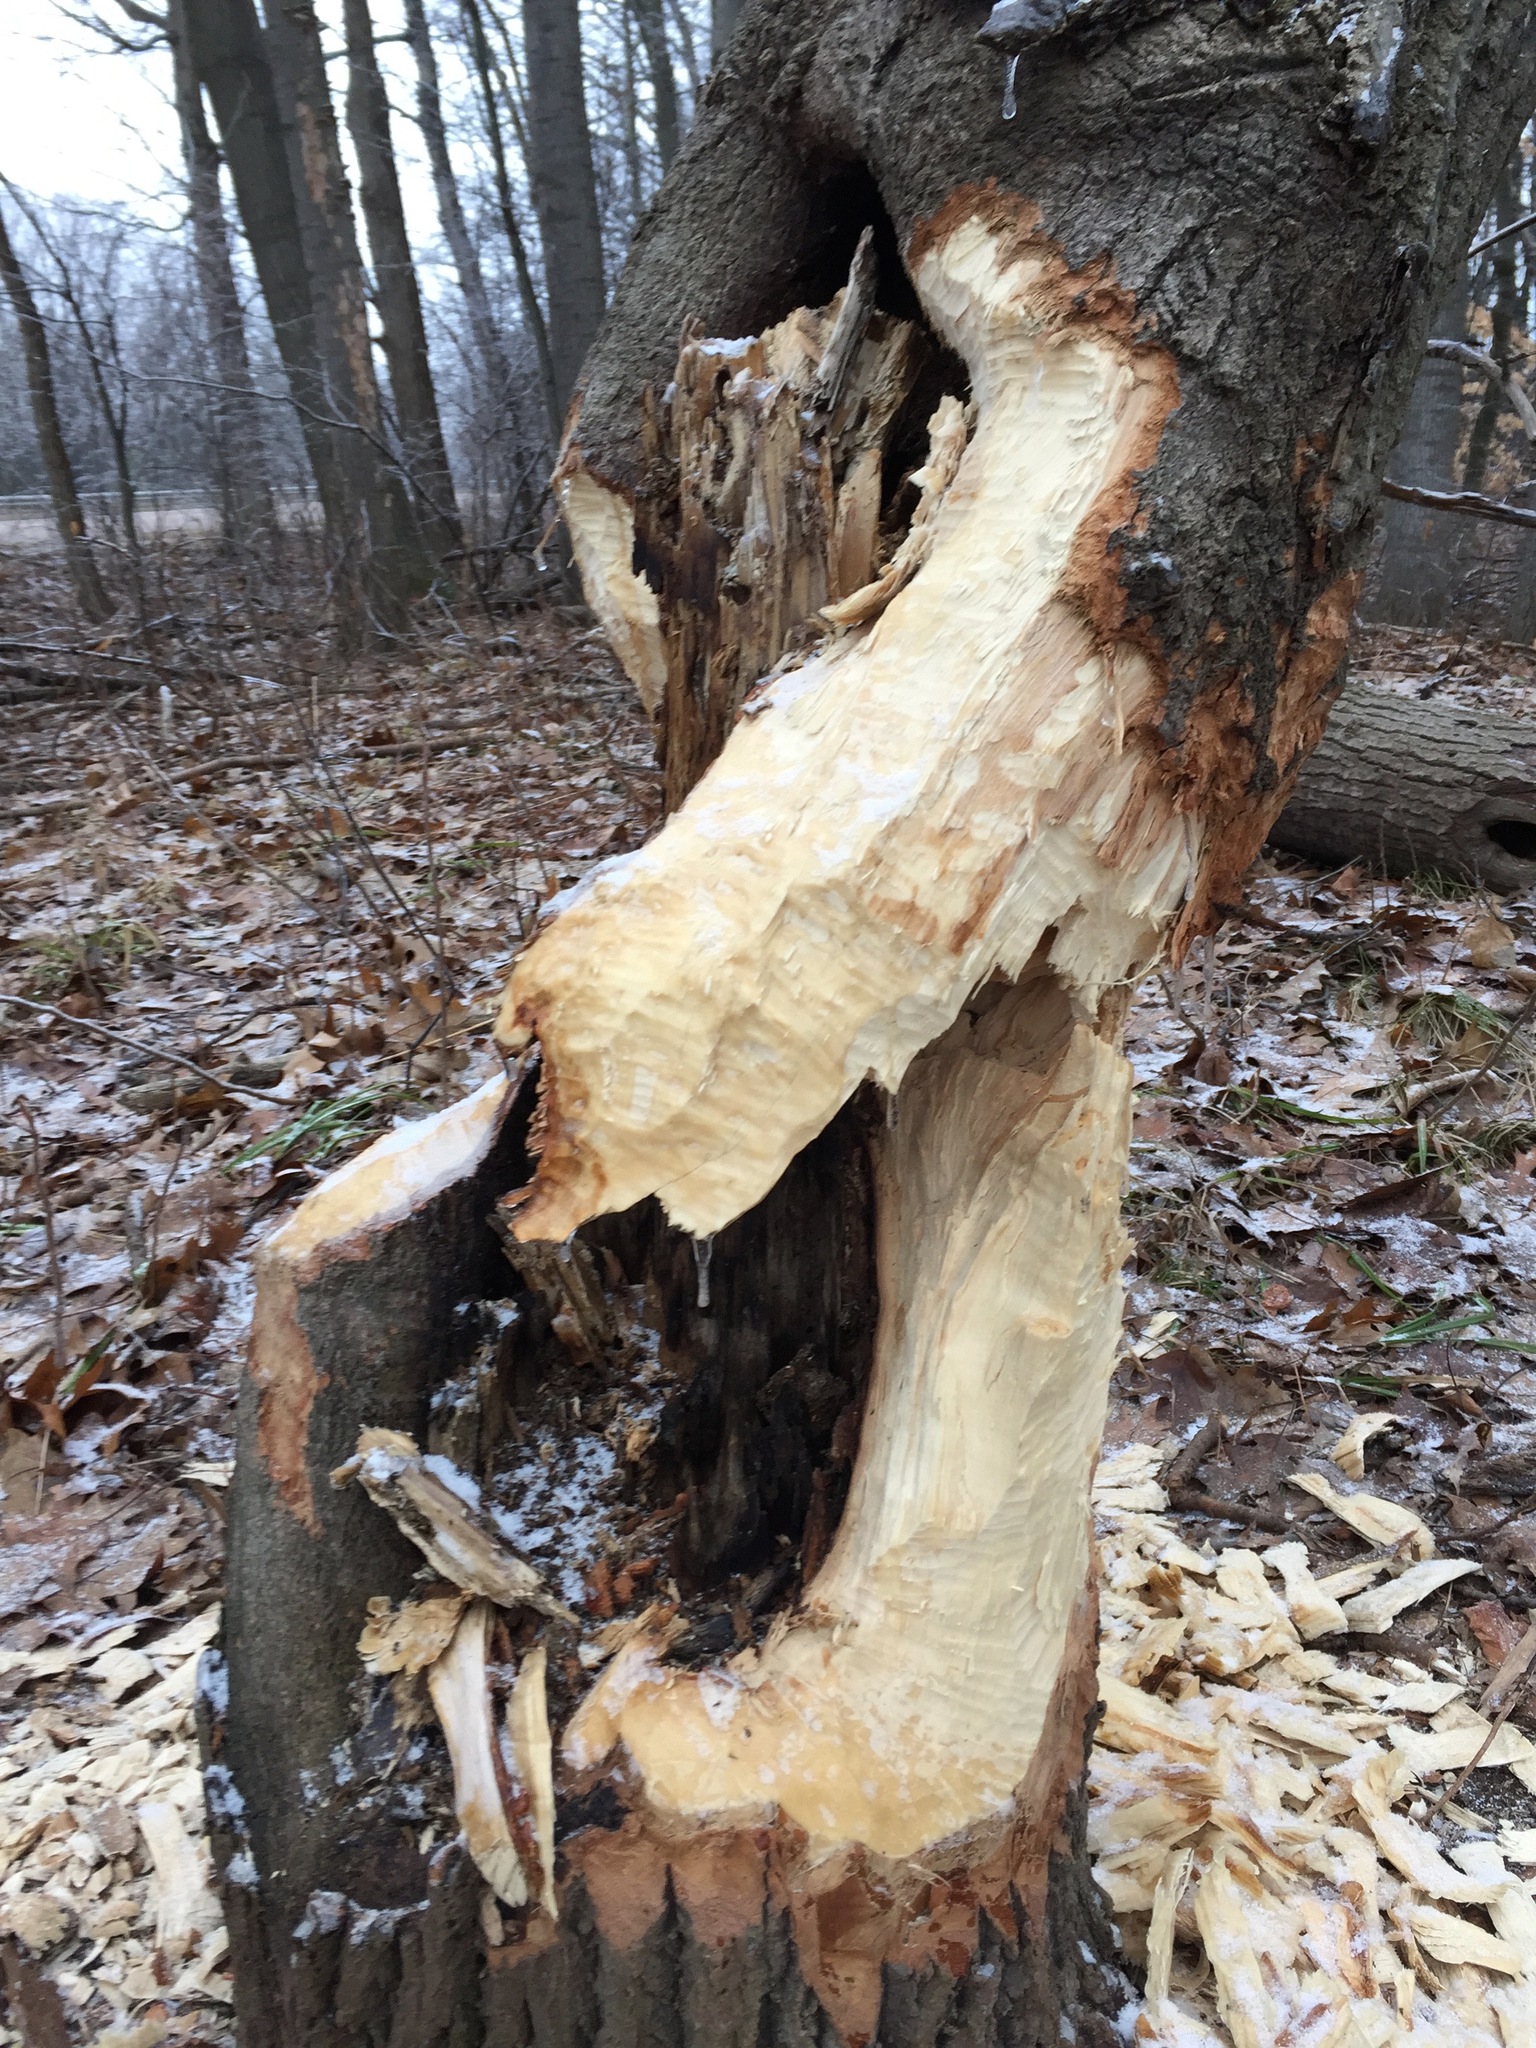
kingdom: Animalia
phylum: Chordata
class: Mammalia
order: Rodentia
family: Castoridae
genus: Castor
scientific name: Castor canadensis
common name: American beaver
